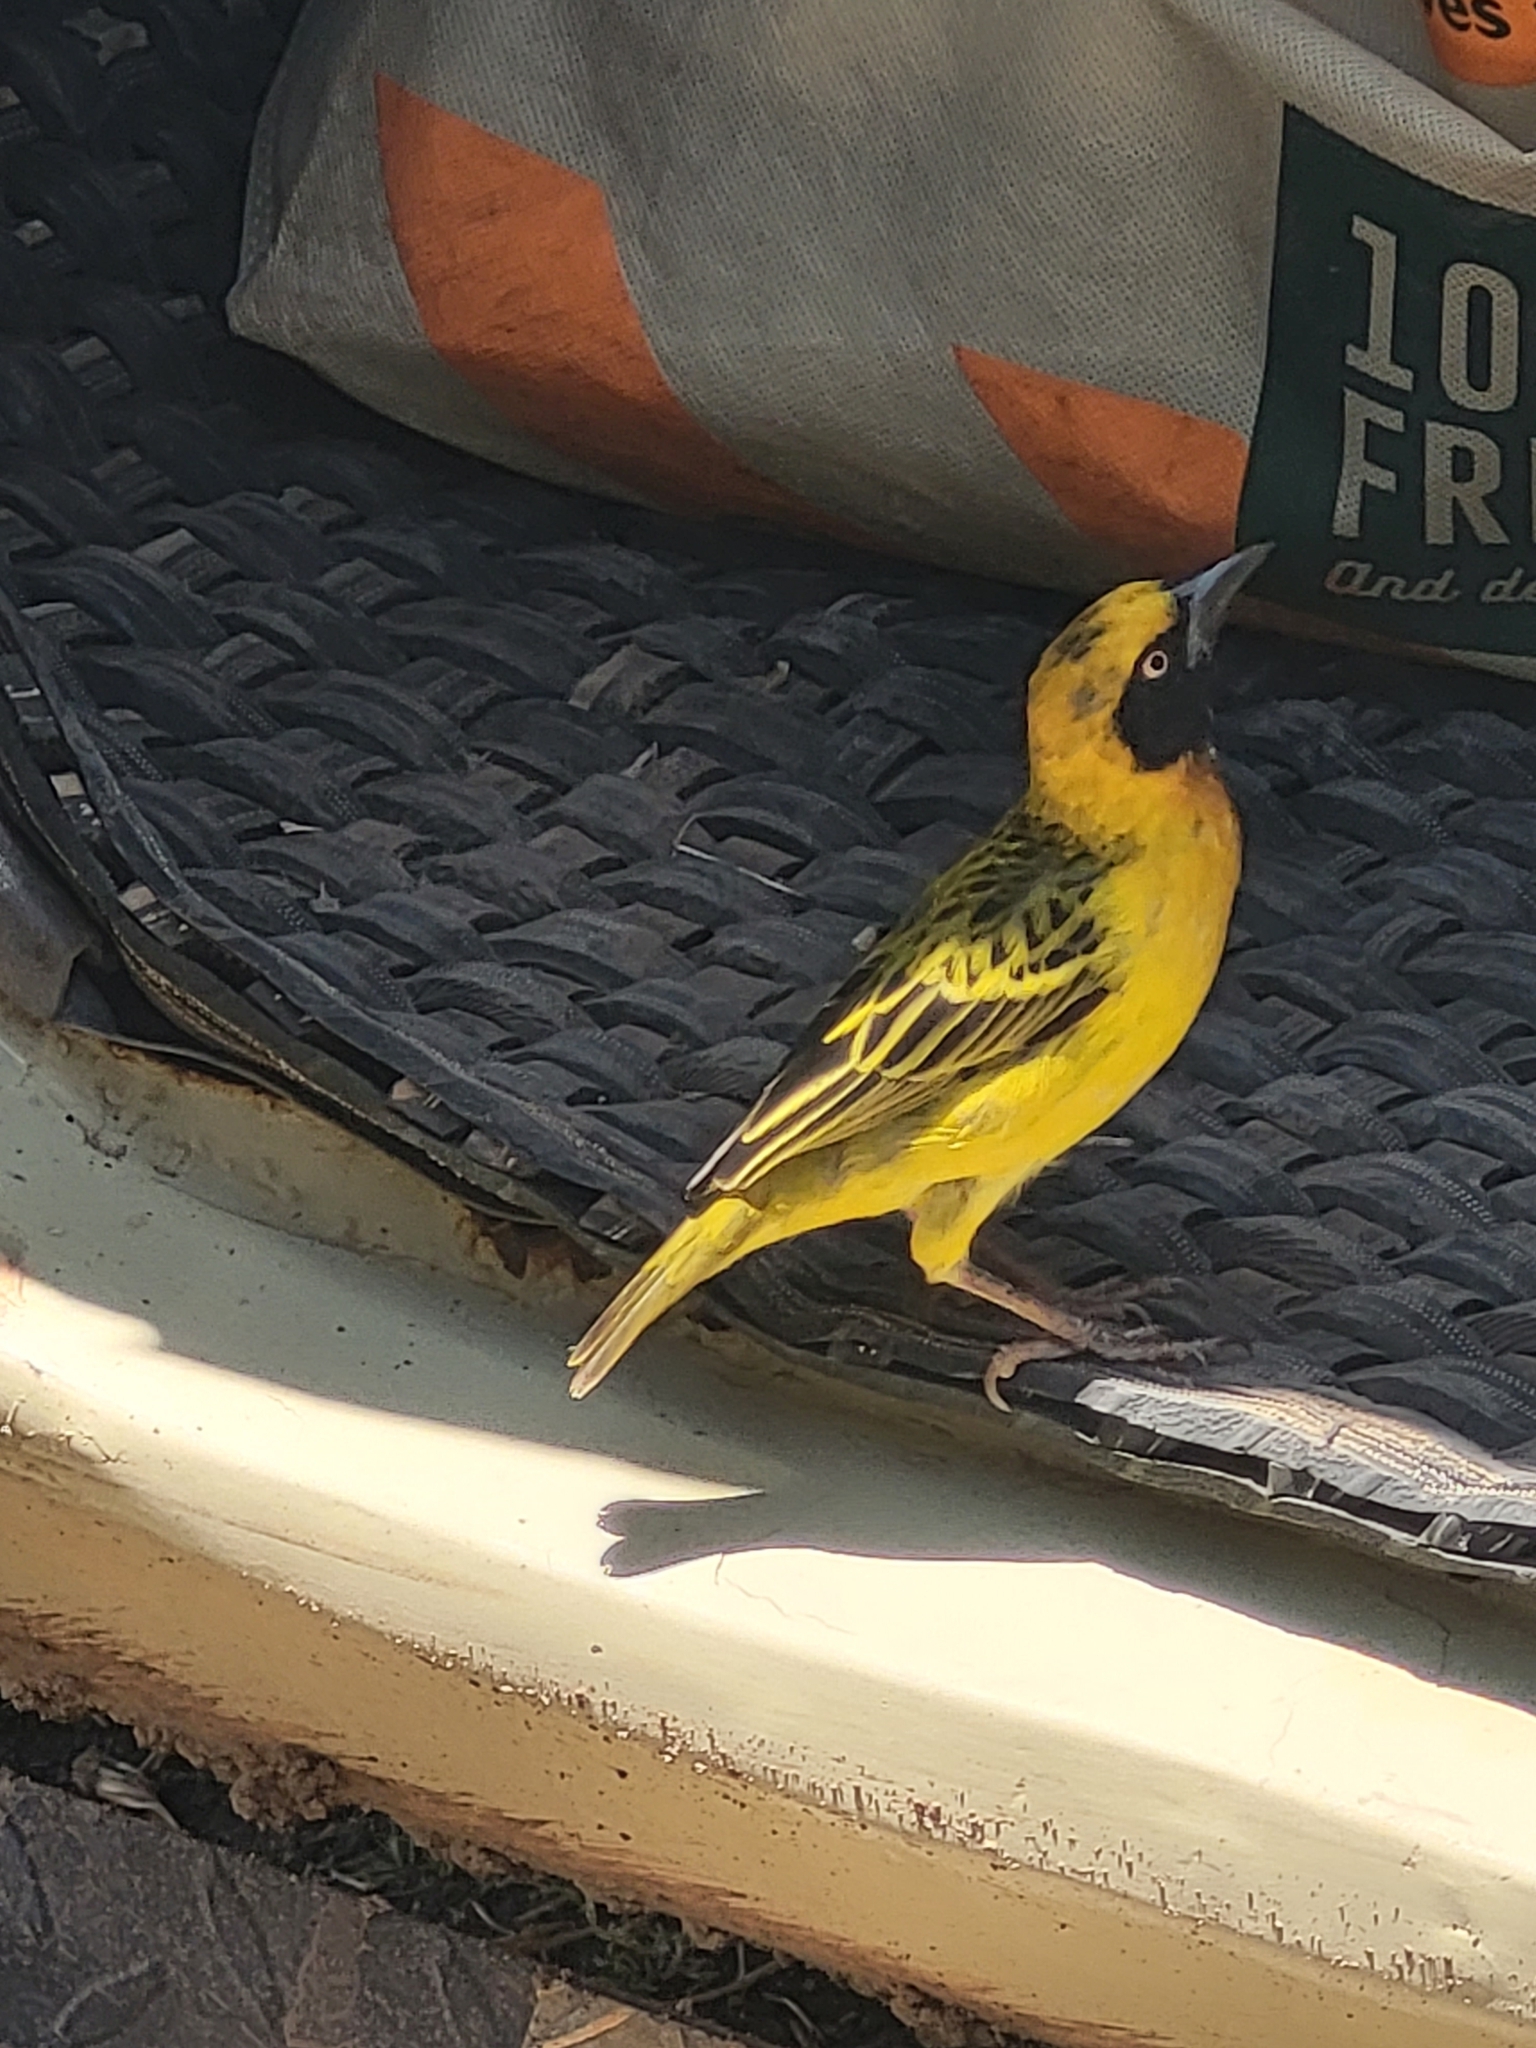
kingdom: Animalia
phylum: Chordata
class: Aves
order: Passeriformes
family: Ploceidae
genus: Ploceus
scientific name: Ploceus spekei
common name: Speke's weaver
